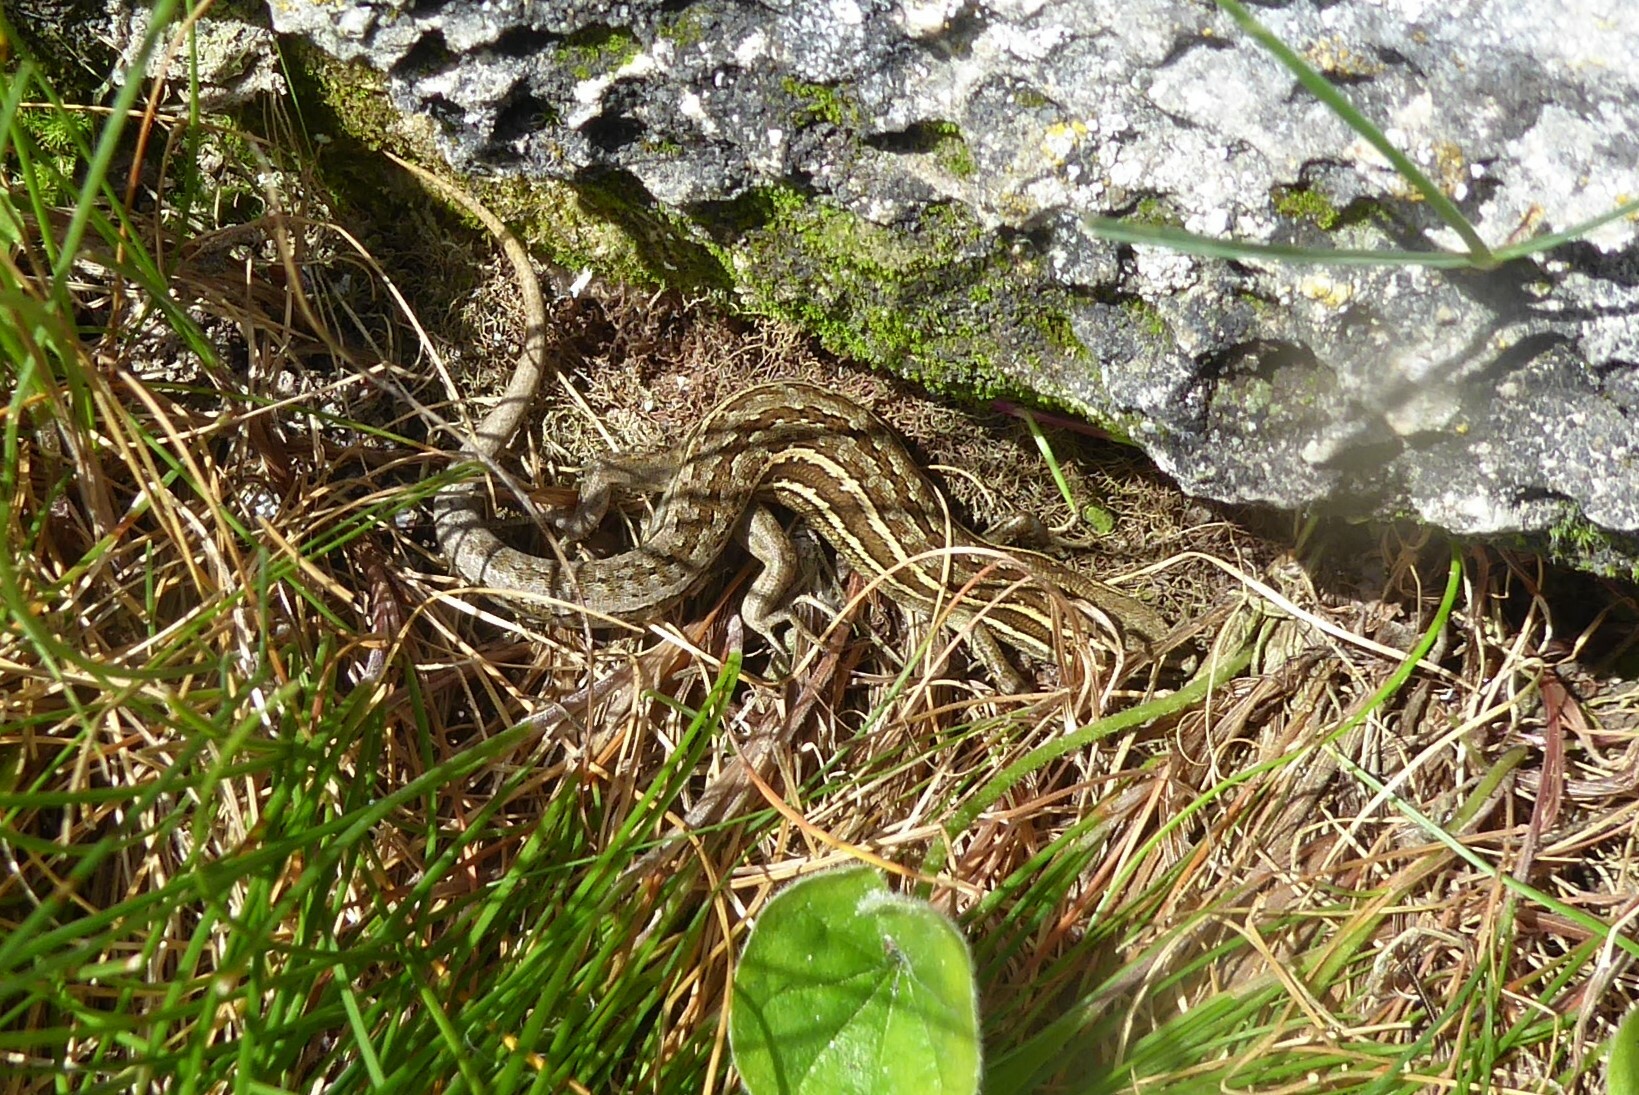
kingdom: Animalia
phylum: Chordata
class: Squamata
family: Scincidae
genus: Oligosoma
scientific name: Oligosoma maccanni
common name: Mccann’s skink
